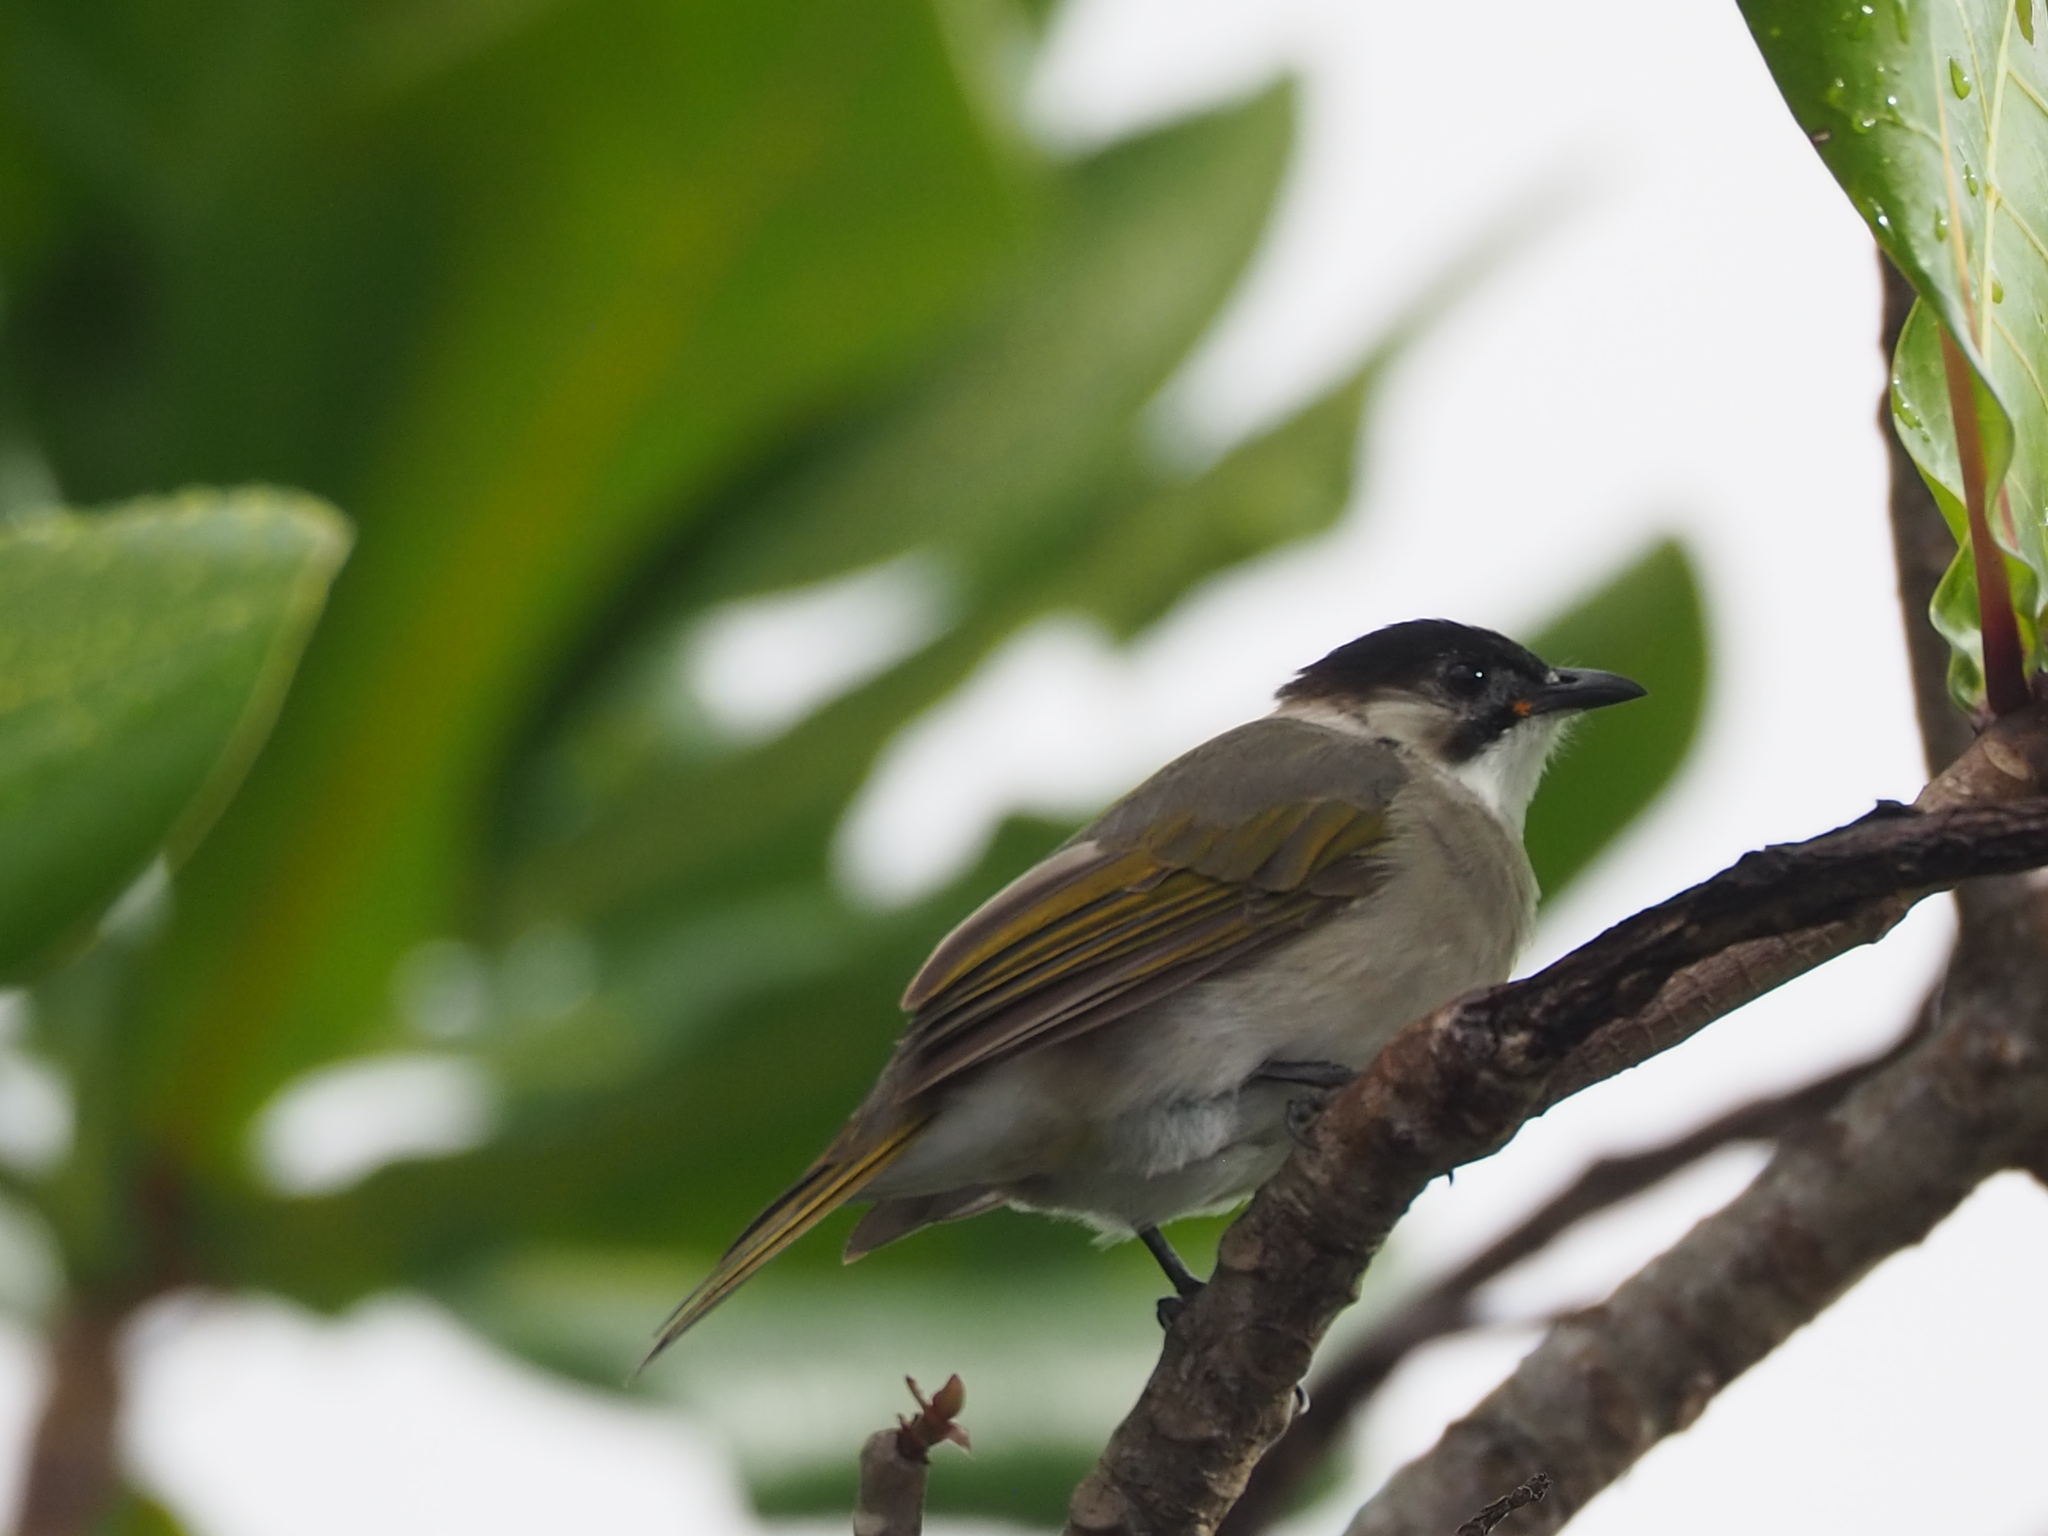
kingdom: Animalia
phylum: Chordata
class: Aves
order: Passeriformes
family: Pycnonotidae
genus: Pycnonotus
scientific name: Pycnonotus taivanus
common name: Styan's bulbul
